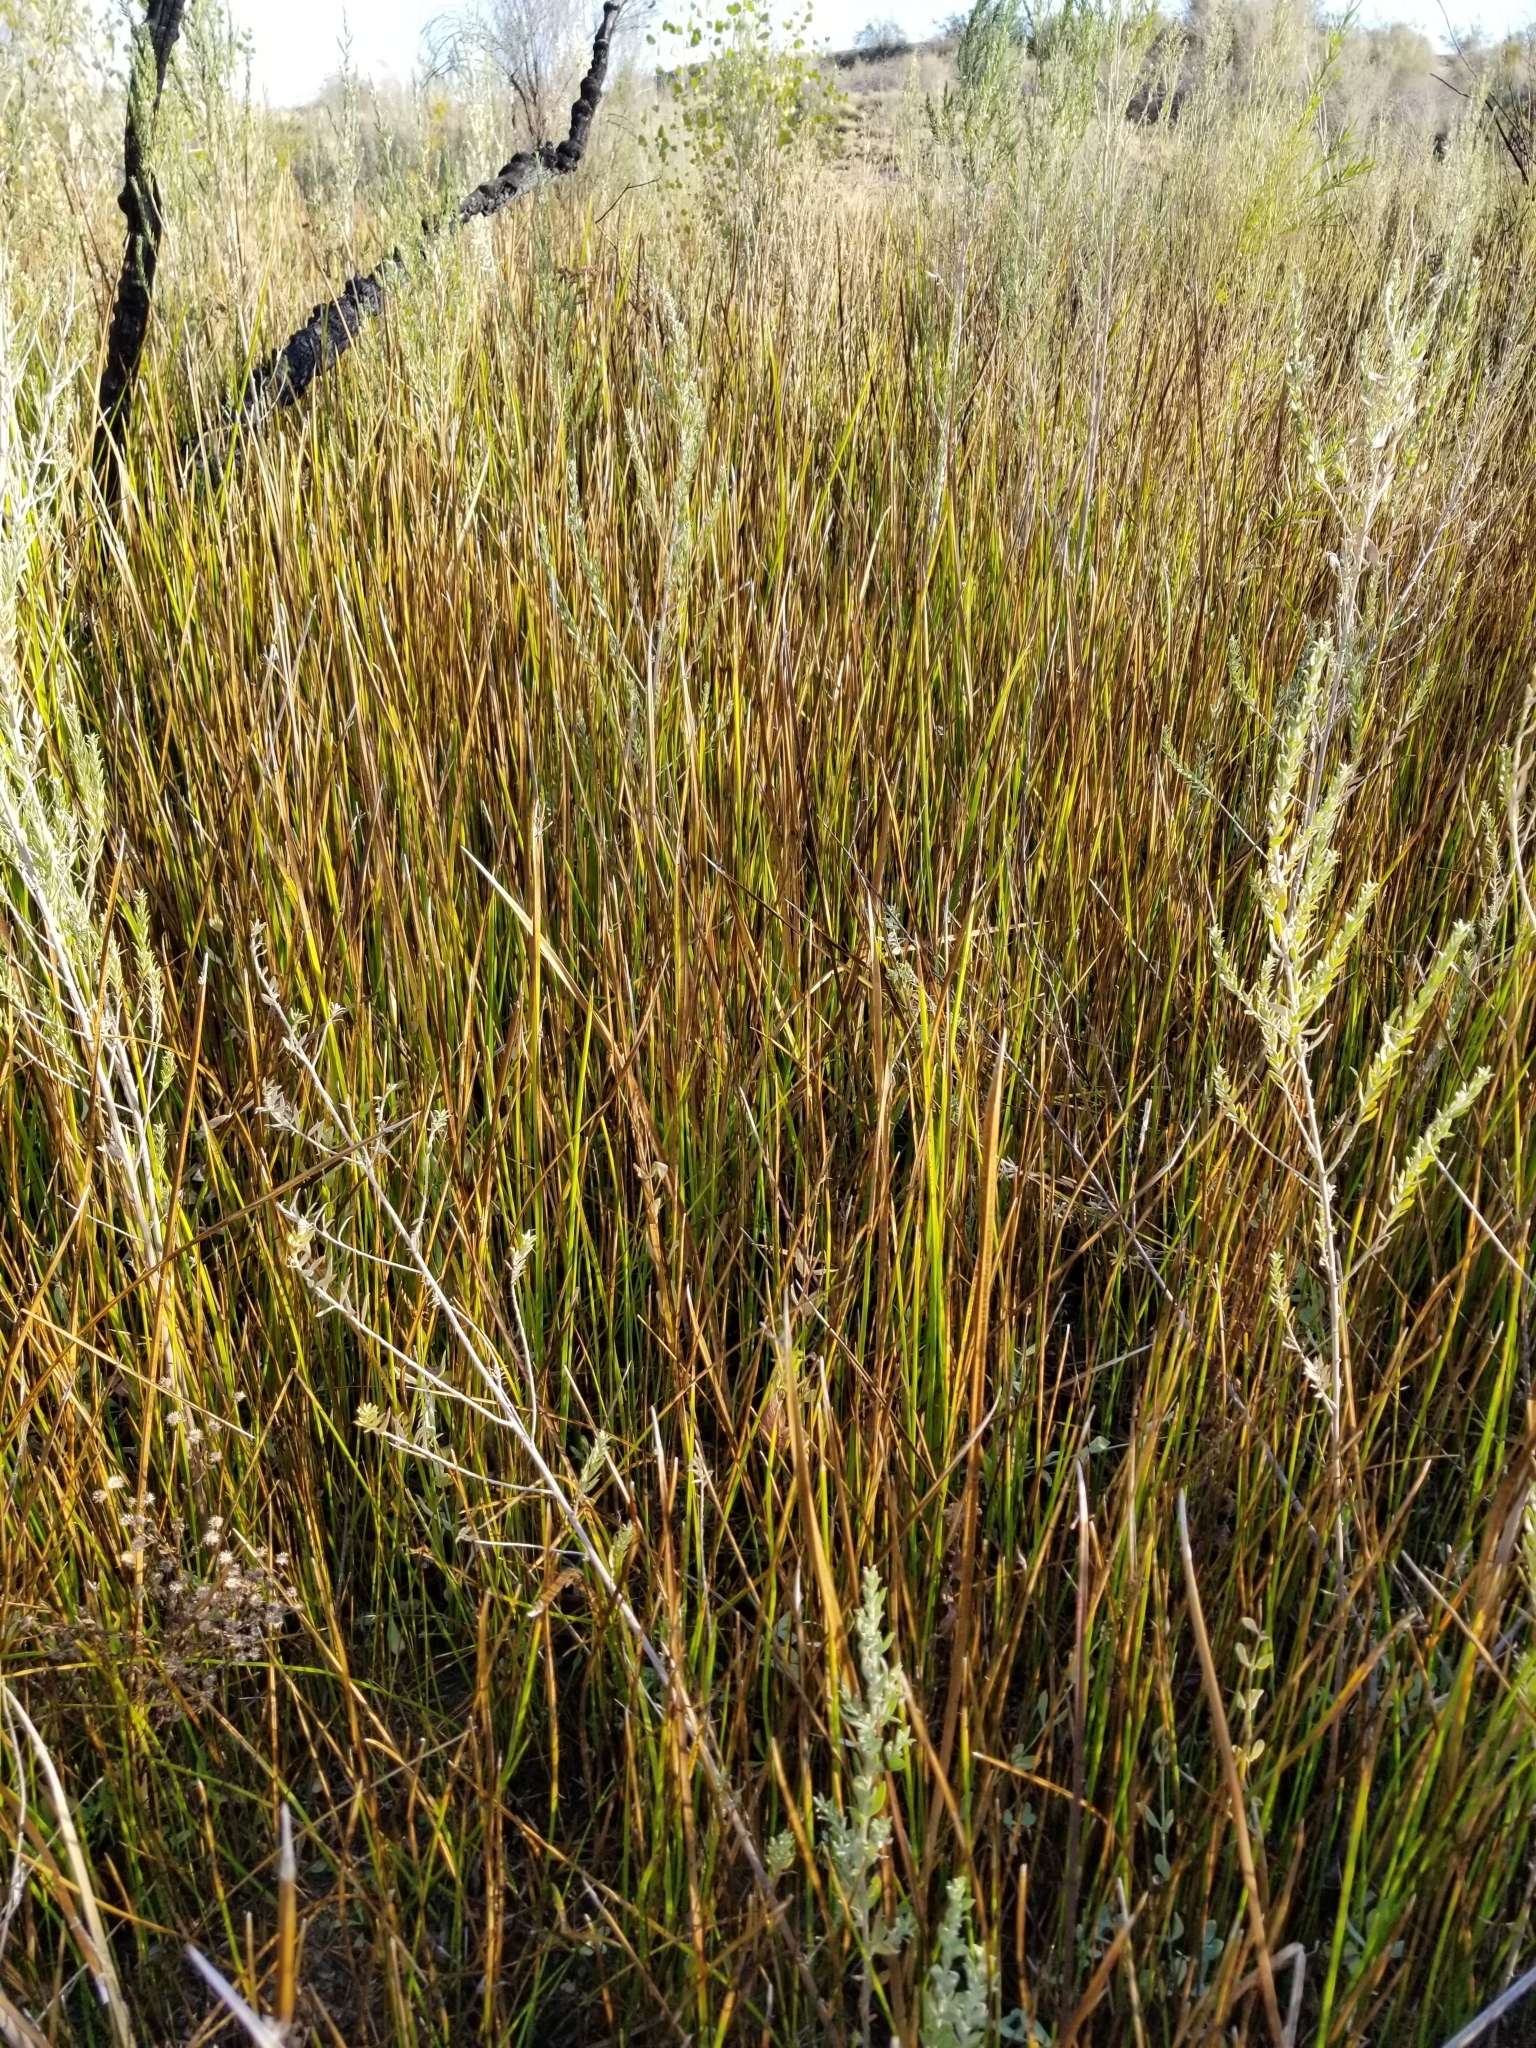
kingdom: Plantae
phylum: Tracheophyta
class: Liliopsida
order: Poales
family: Cyperaceae
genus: Schoenoplectus
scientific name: Schoenoplectus americanus
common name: American three-square bulrush
